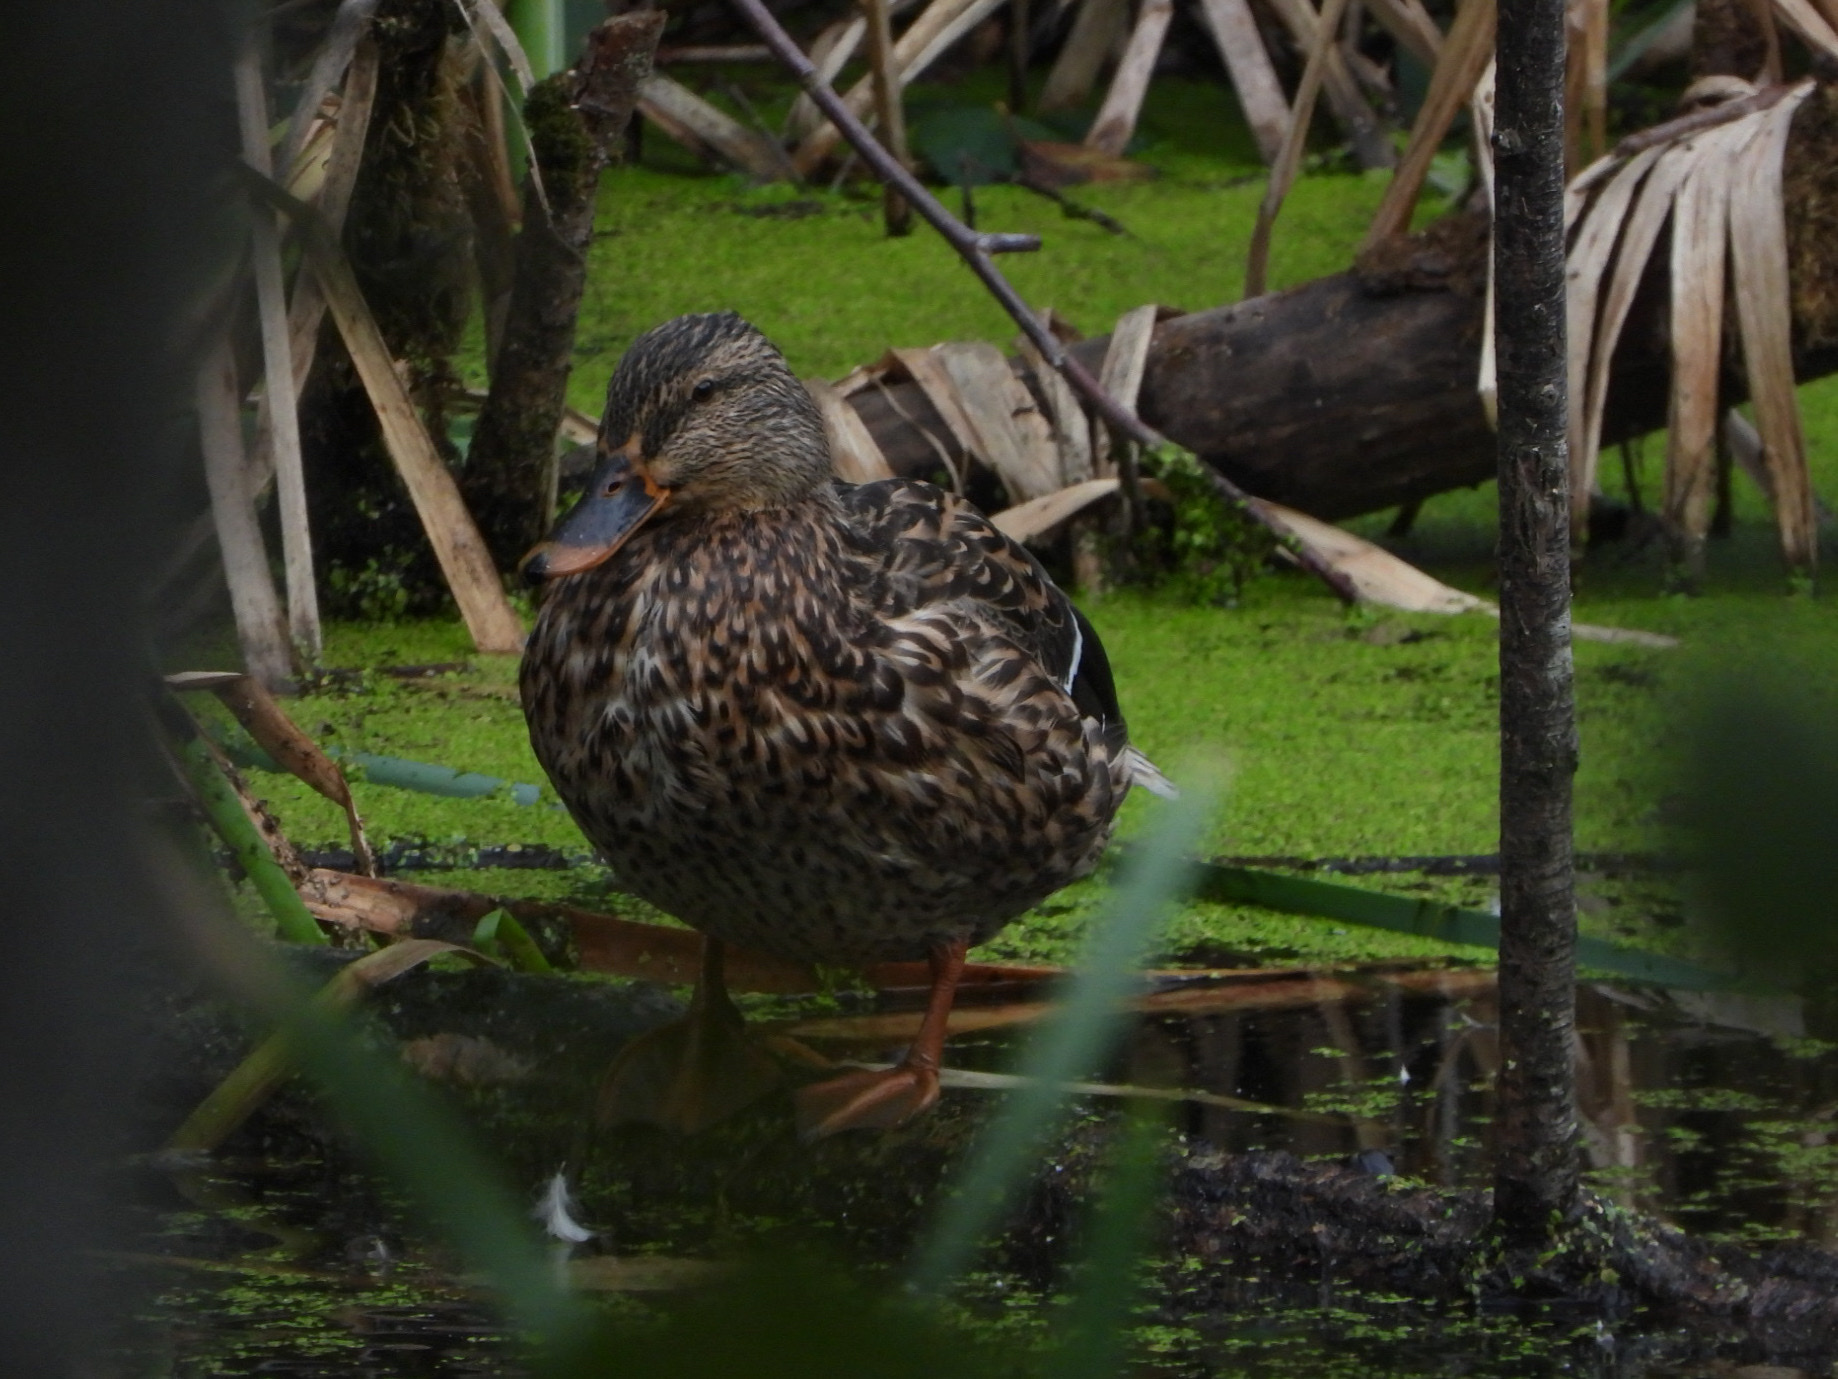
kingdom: Animalia
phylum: Chordata
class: Aves
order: Anseriformes
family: Anatidae
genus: Anas
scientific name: Anas platyrhynchos
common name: Mallard
